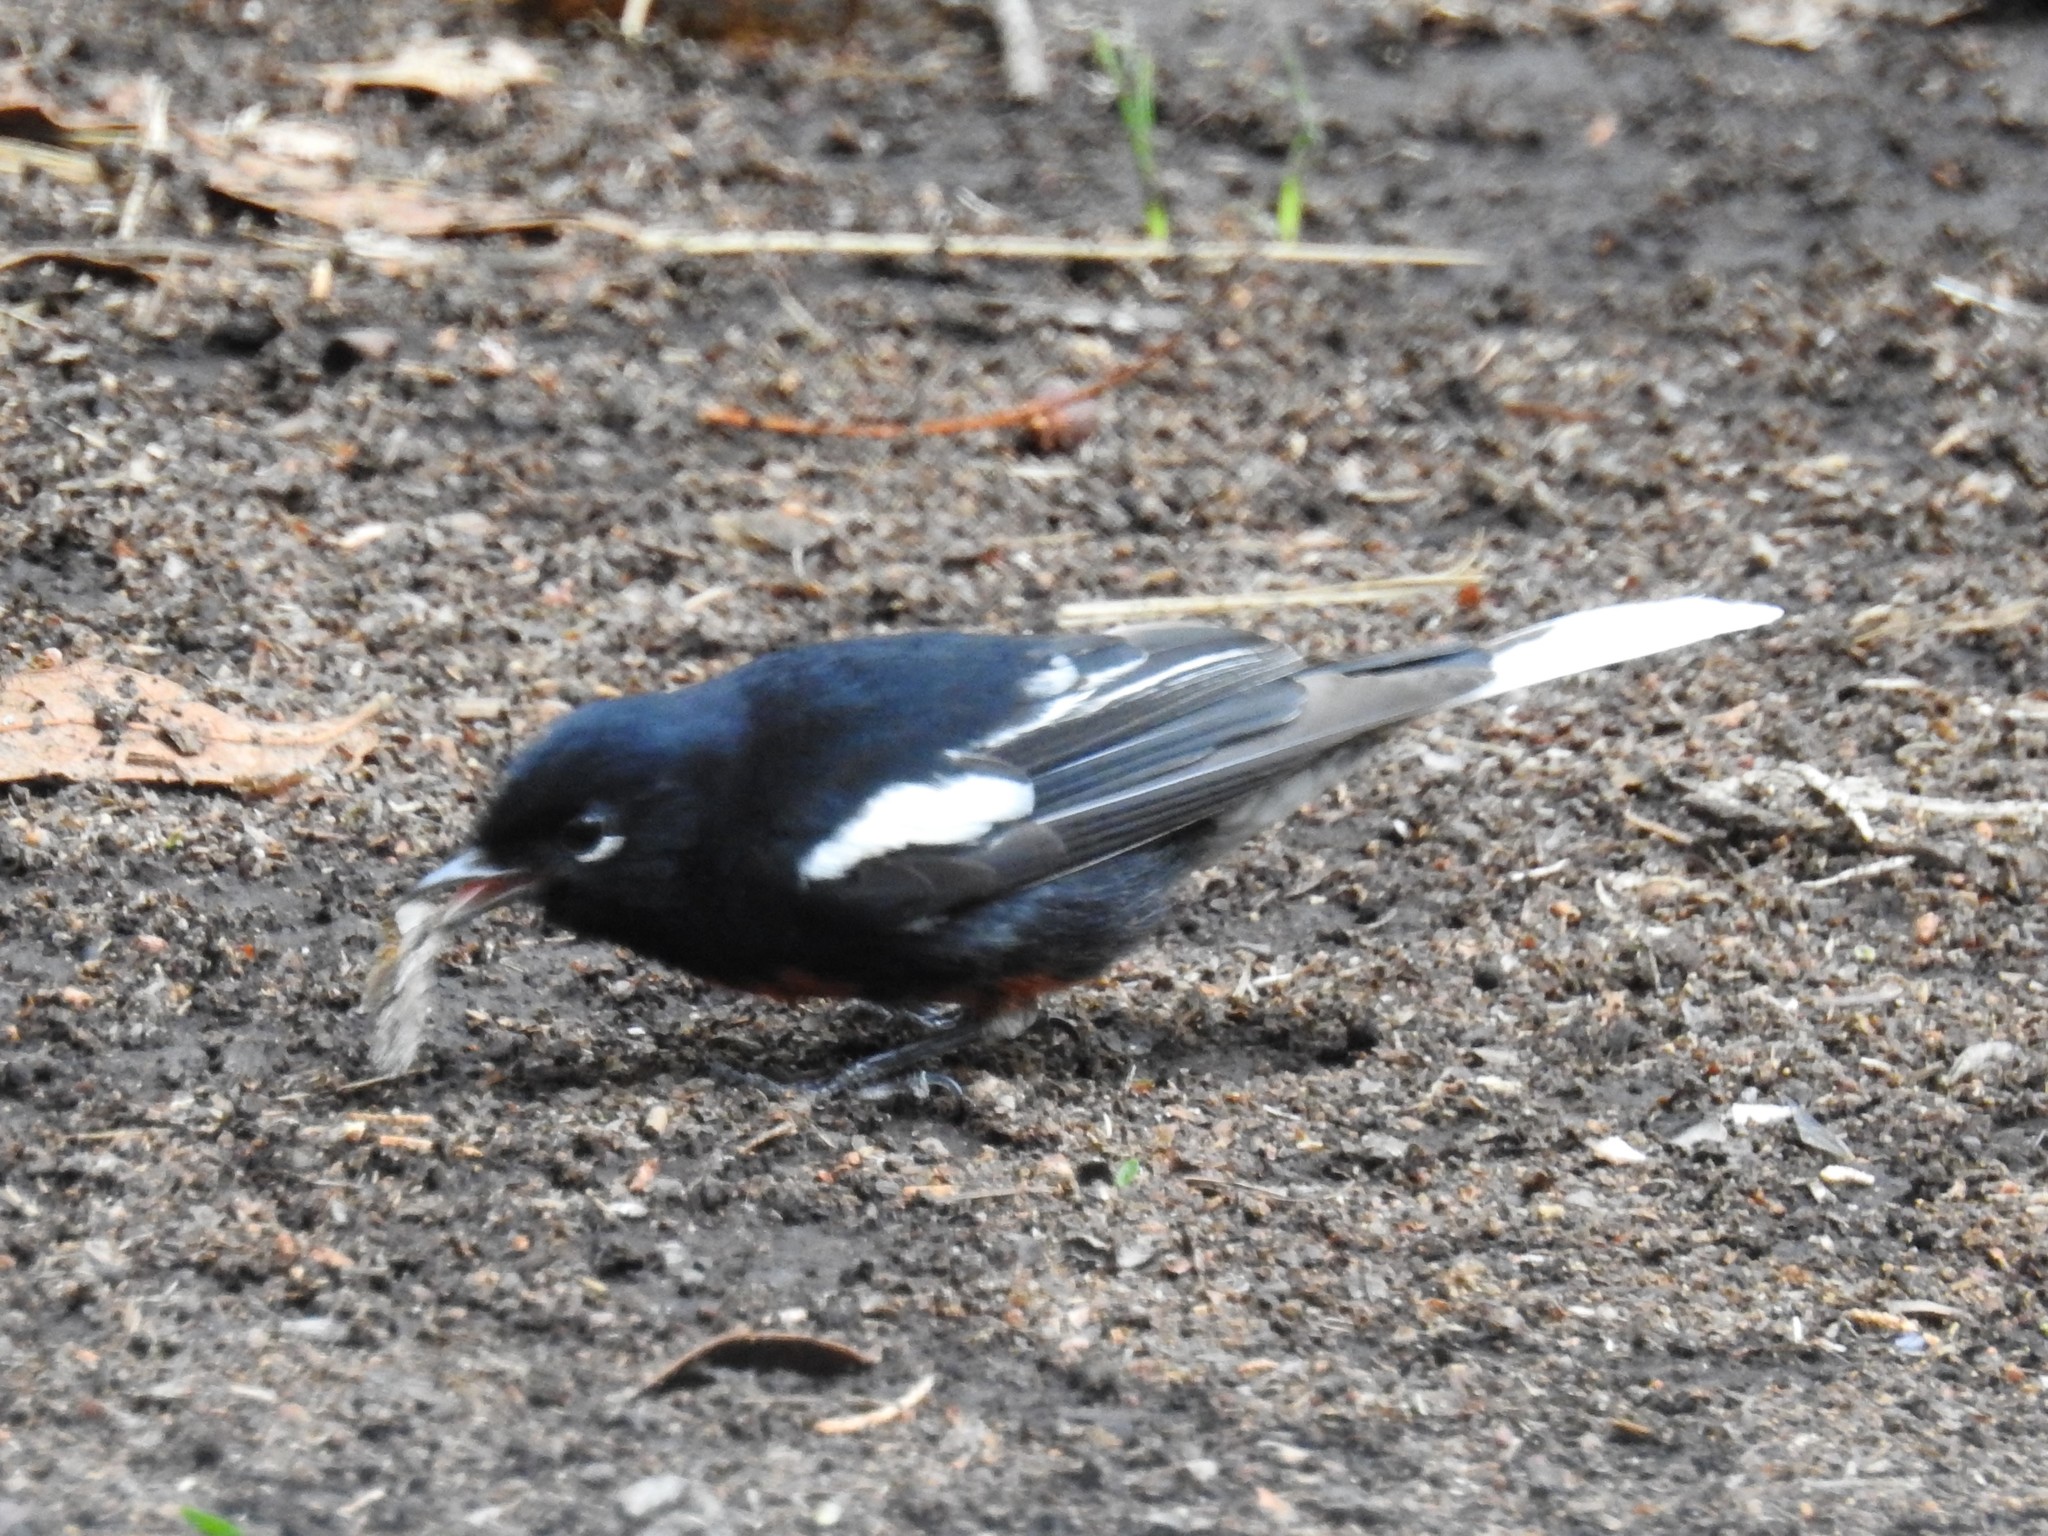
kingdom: Animalia
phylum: Chordata
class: Aves
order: Passeriformes
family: Parulidae
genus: Myioborus
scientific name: Myioborus pictus
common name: Painted whitestart
